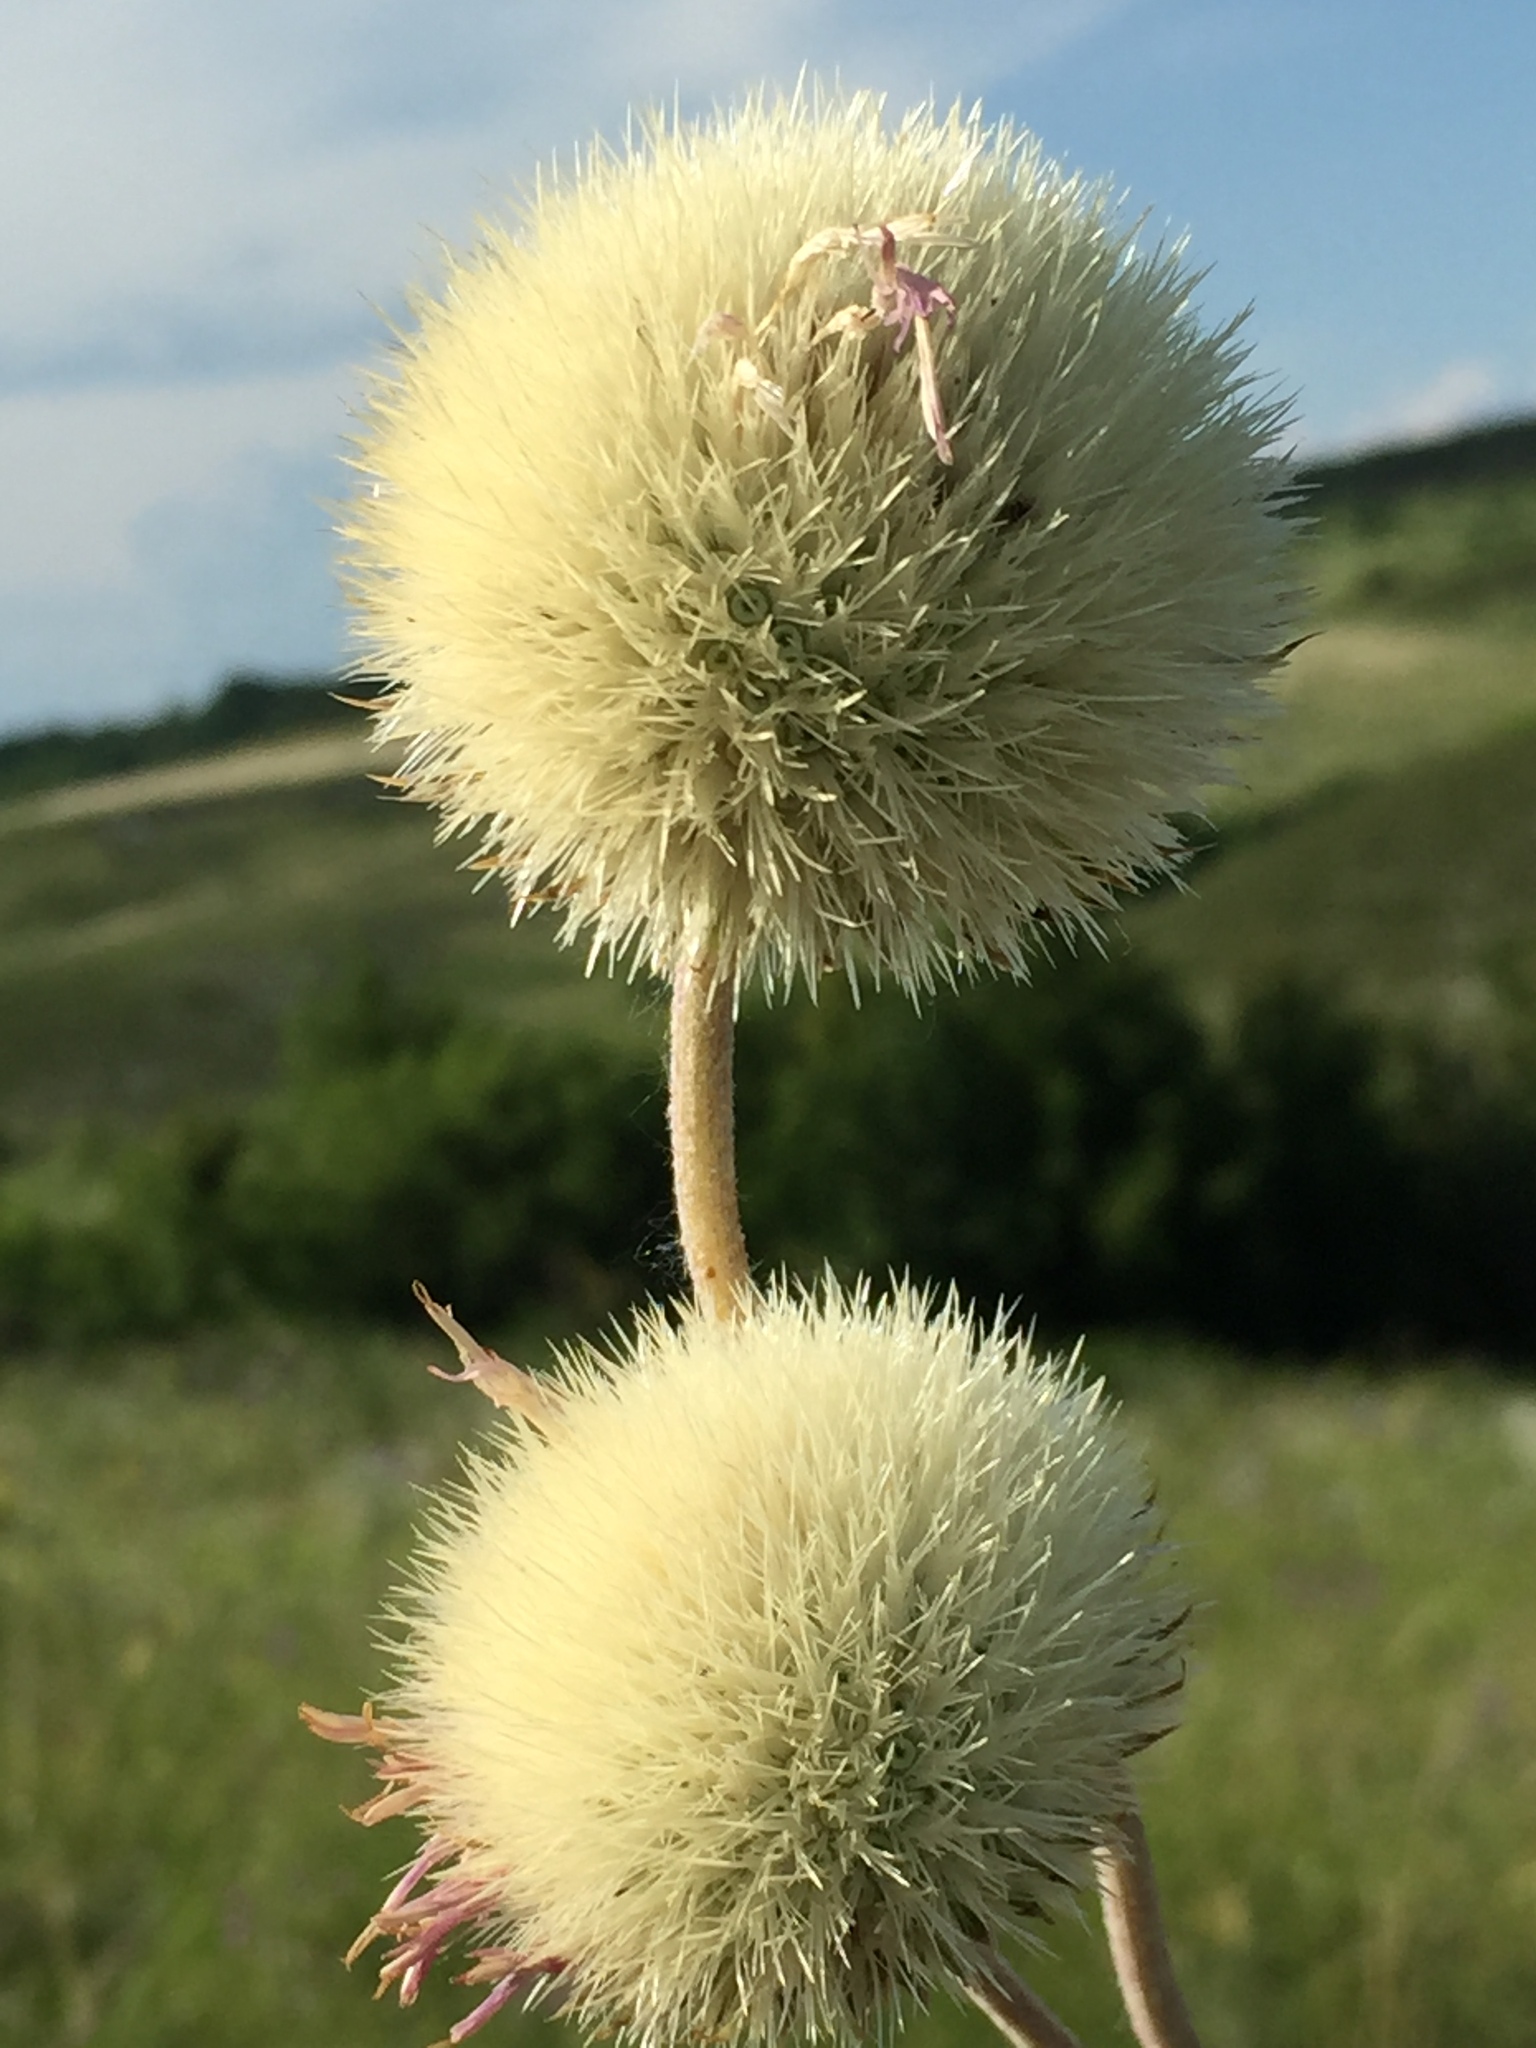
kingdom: Plantae
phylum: Tracheophyta
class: Magnoliopsida
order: Asterales
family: Asteraceae
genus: Jurinea
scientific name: Jurinea ledebourii
